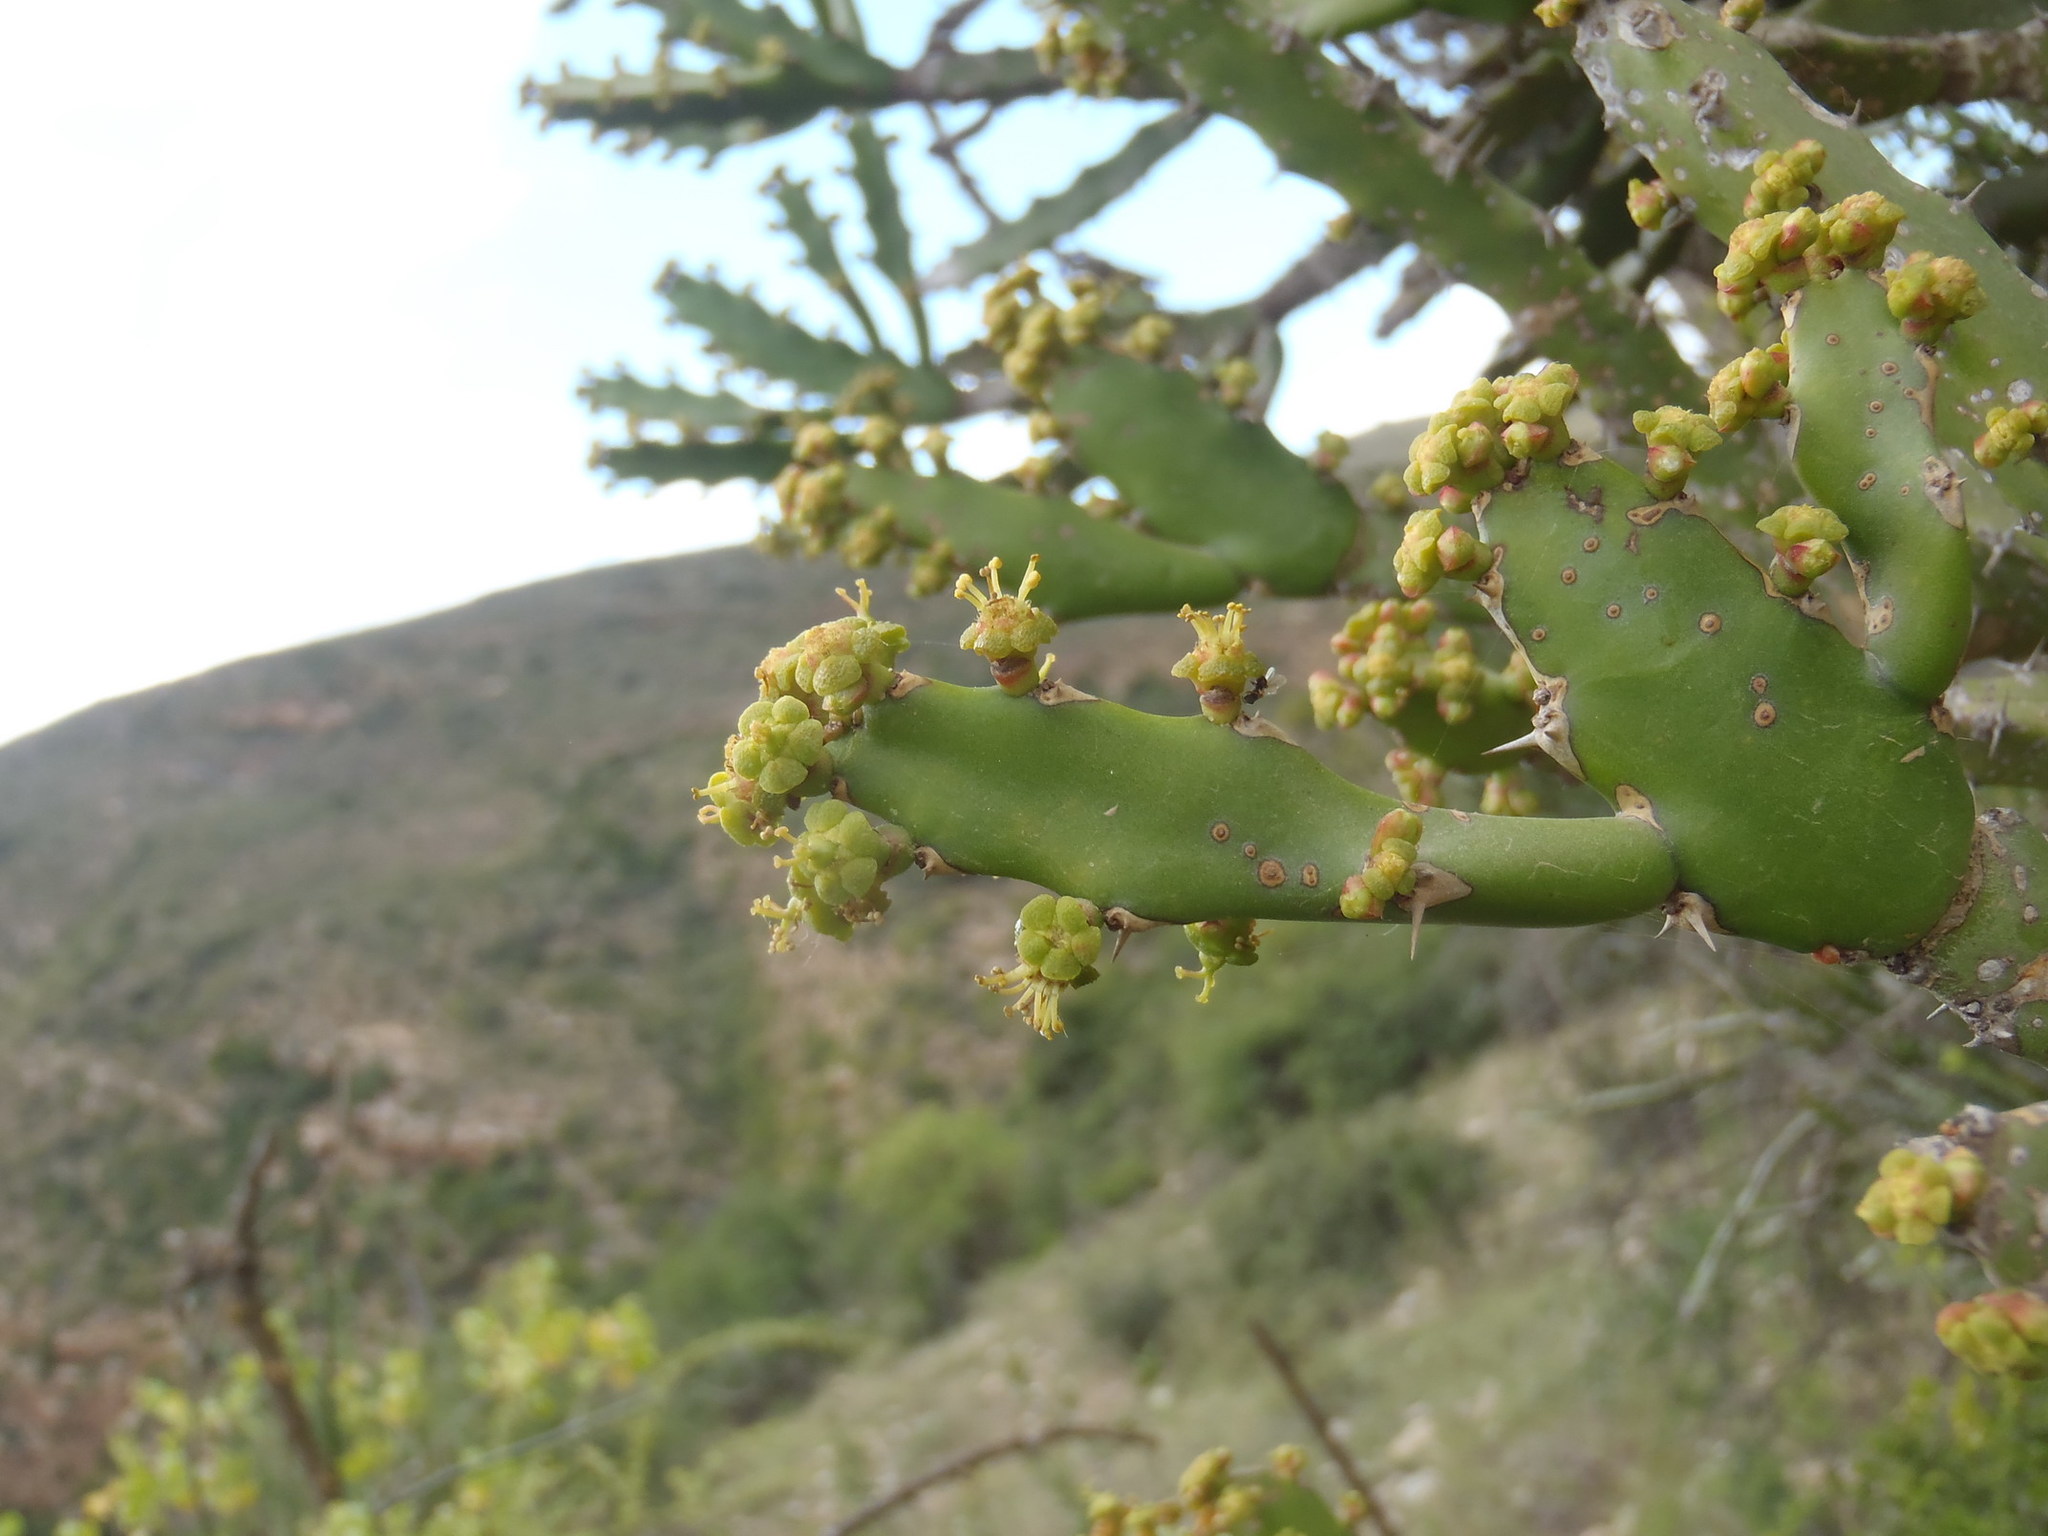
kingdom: Plantae
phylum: Tracheophyta
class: Magnoliopsida
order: Malpighiales
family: Euphorbiaceae
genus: Euphorbia
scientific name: Euphorbia grandidens
